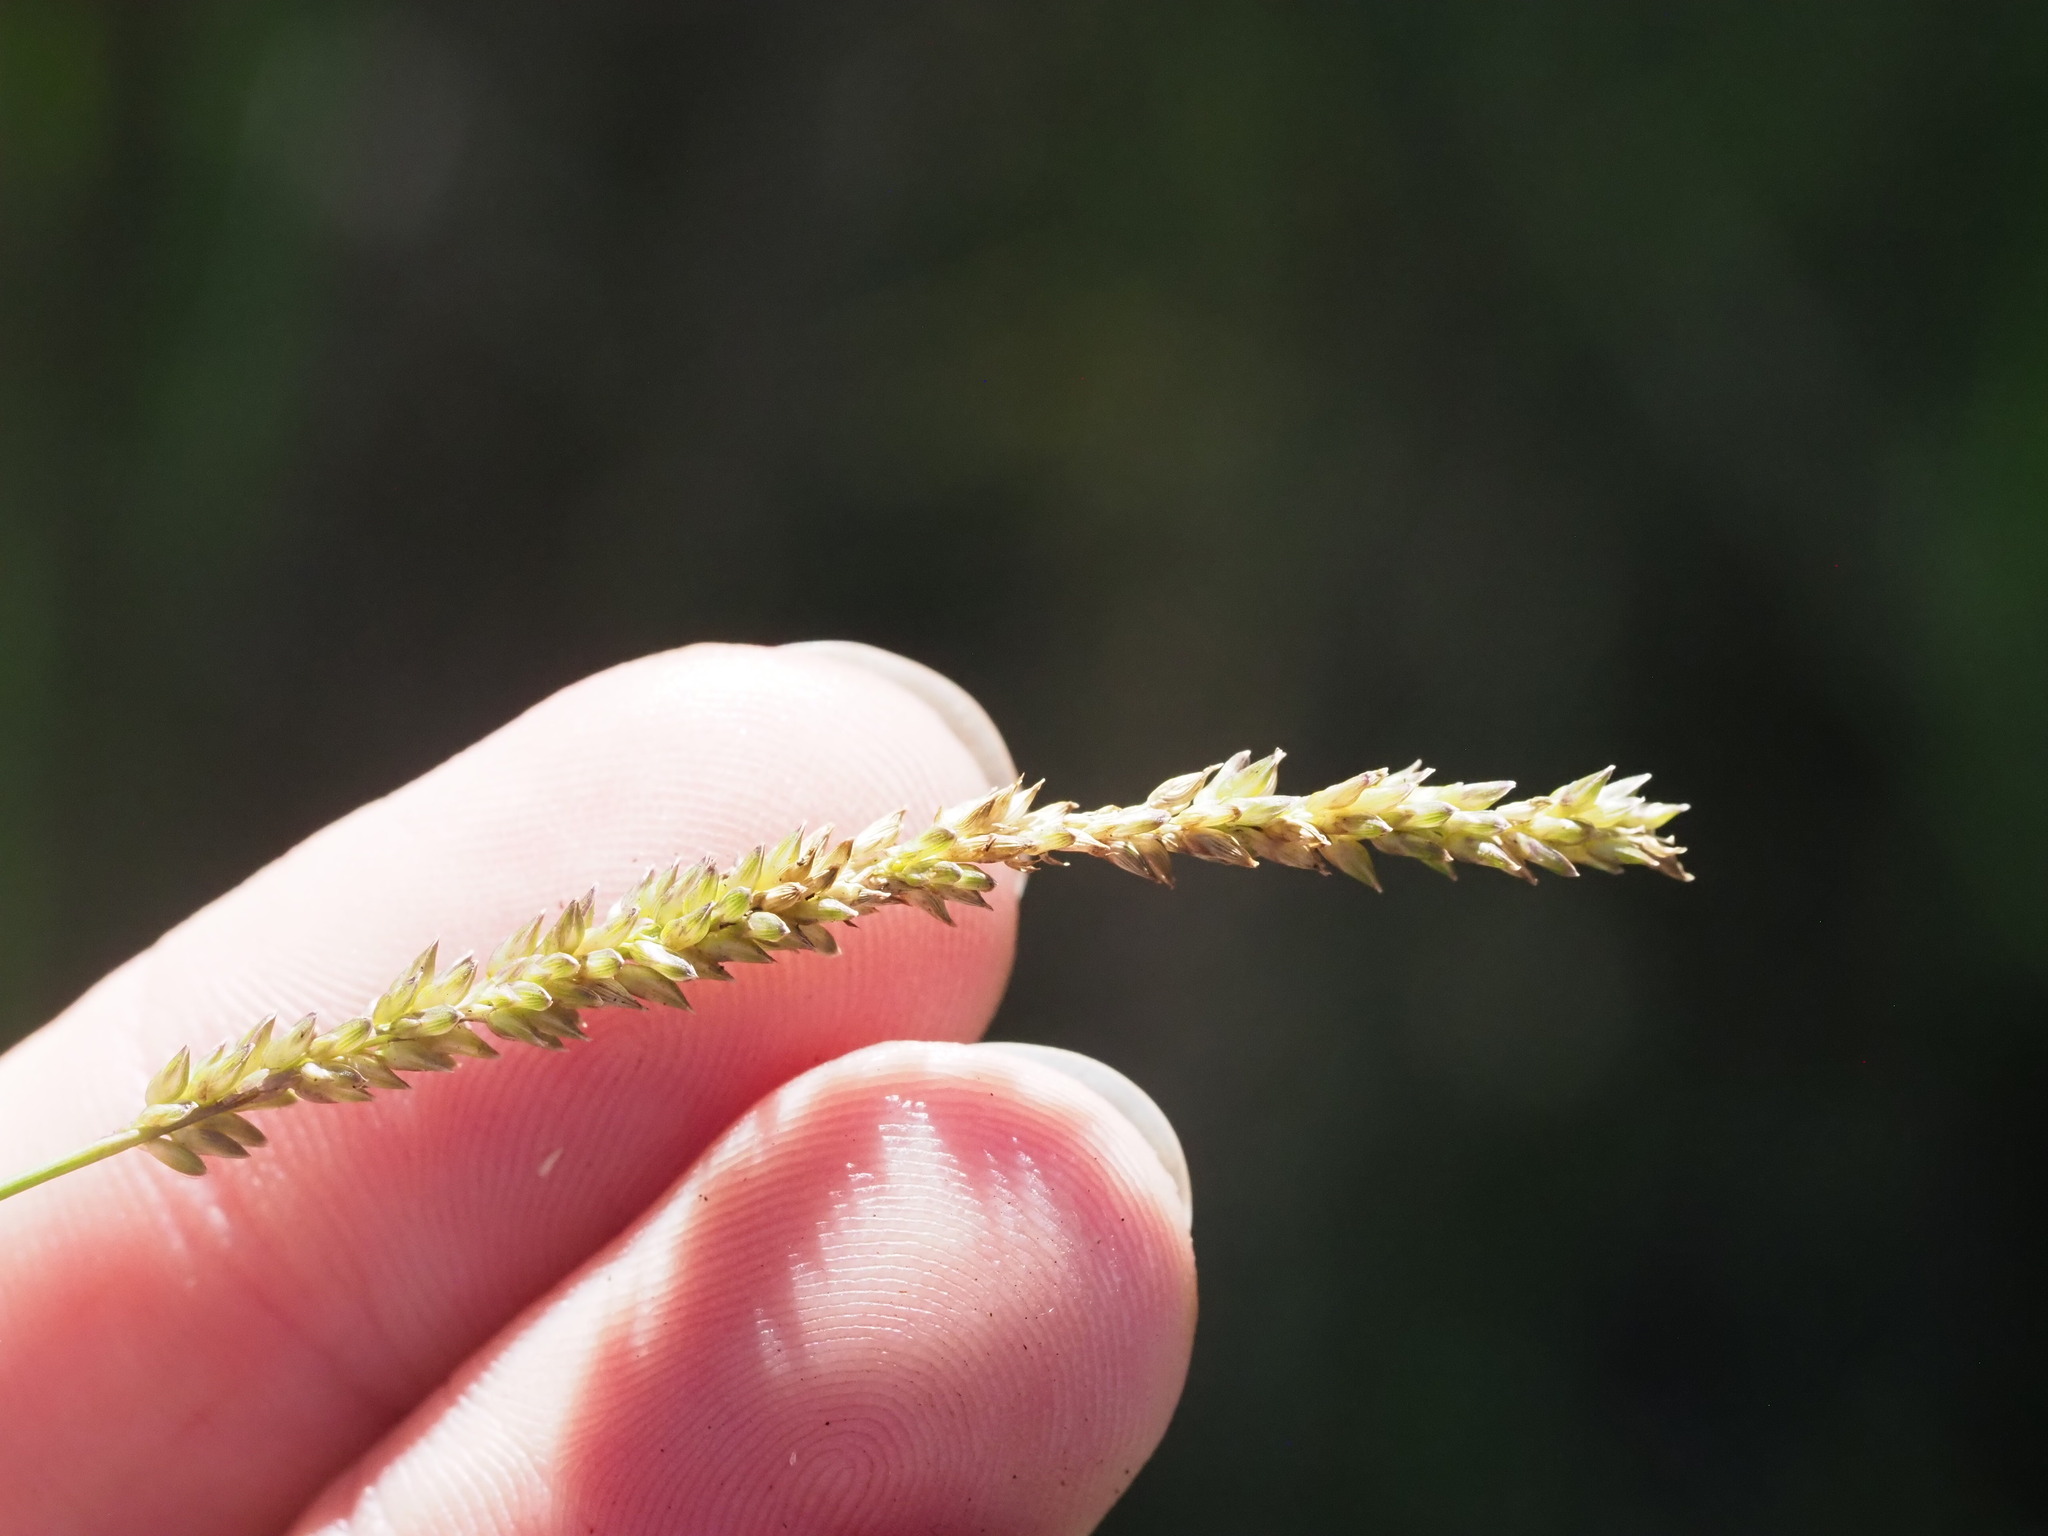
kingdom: Plantae
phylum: Tracheophyta
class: Liliopsida
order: Poales
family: Poaceae
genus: Sacciolepis
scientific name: Sacciolepis indica
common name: Glenwoodgrass
